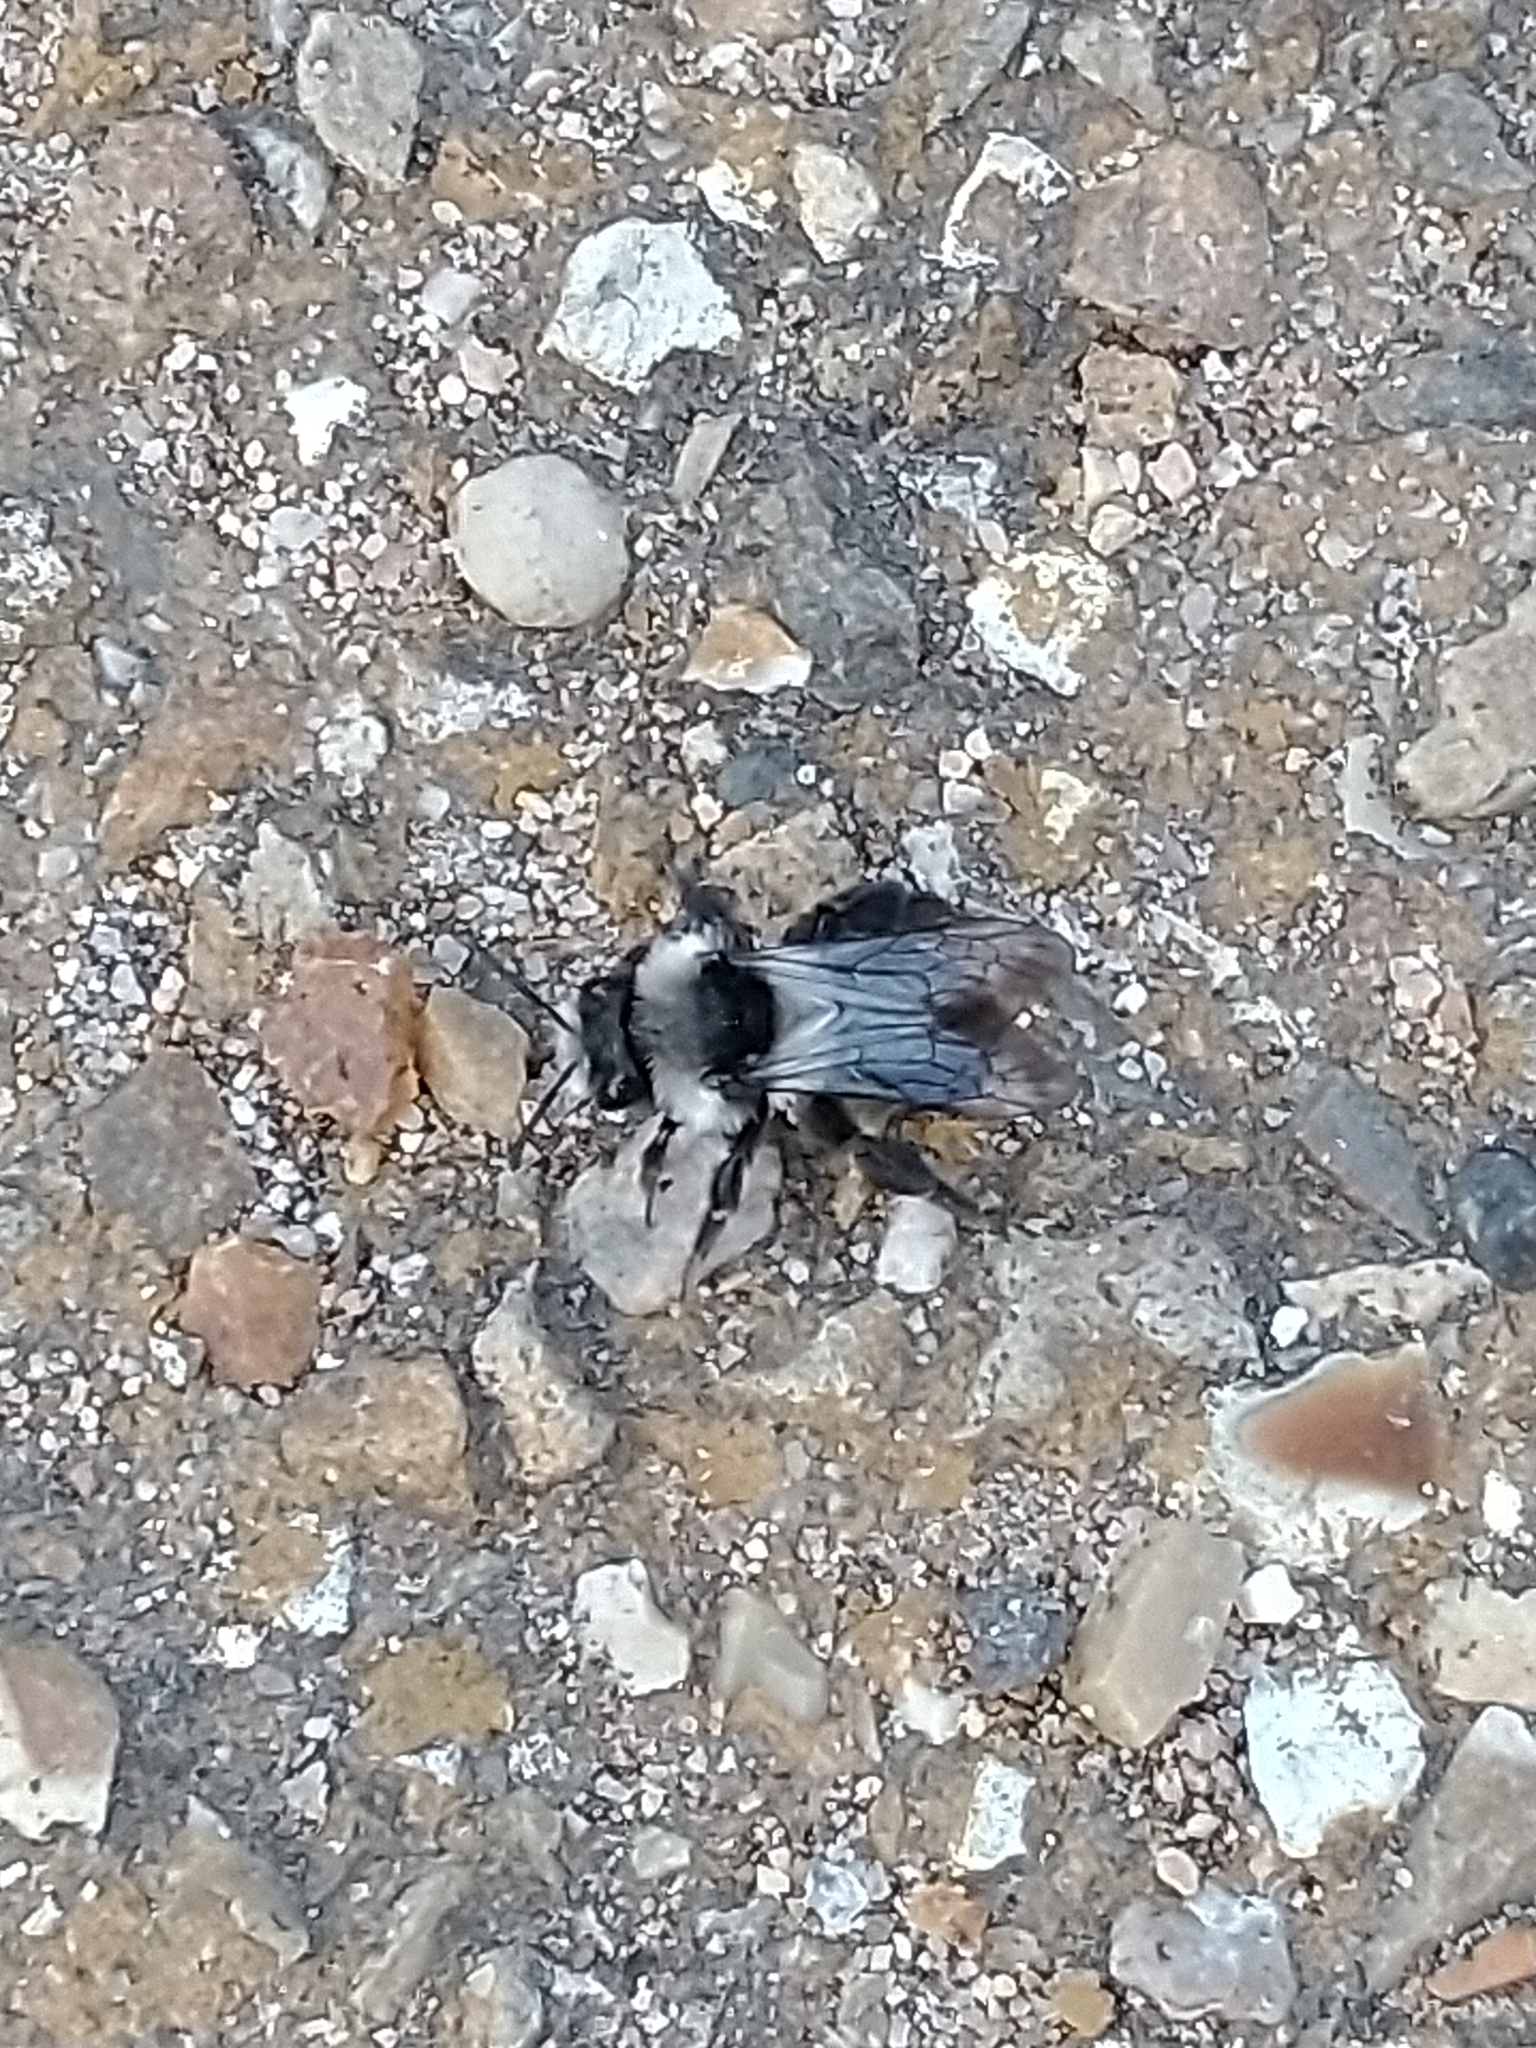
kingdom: Animalia
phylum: Arthropoda
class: Insecta
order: Hymenoptera
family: Andrenidae
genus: Andrena
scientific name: Andrena cineraria
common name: Ashy mining bee
